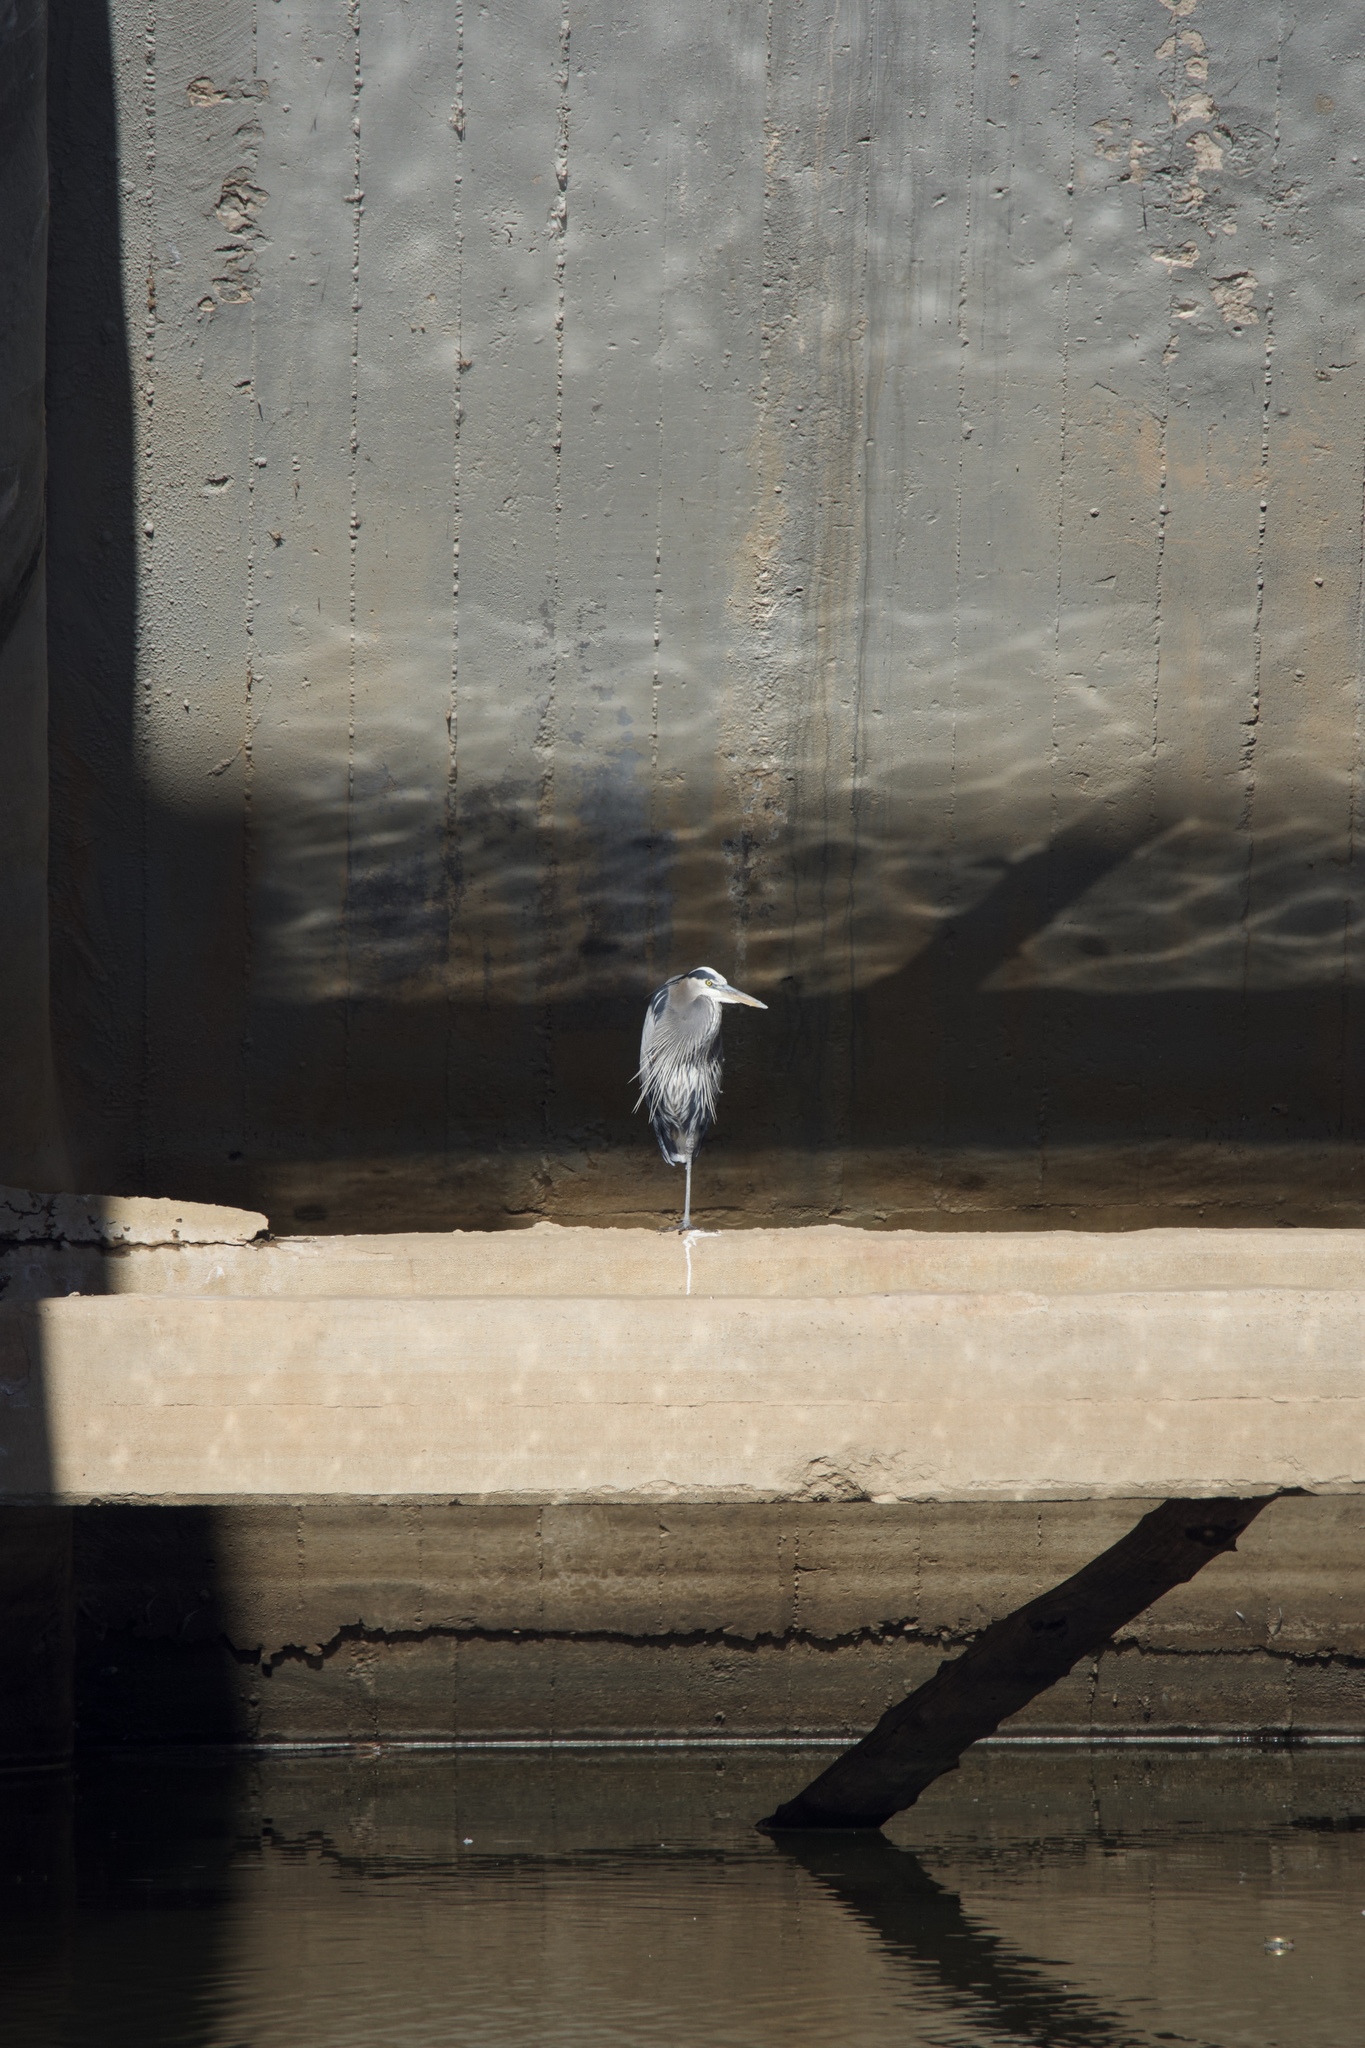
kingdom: Animalia
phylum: Chordata
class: Aves
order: Pelecaniformes
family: Ardeidae
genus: Ardea
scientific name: Ardea herodias
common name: Great blue heron
